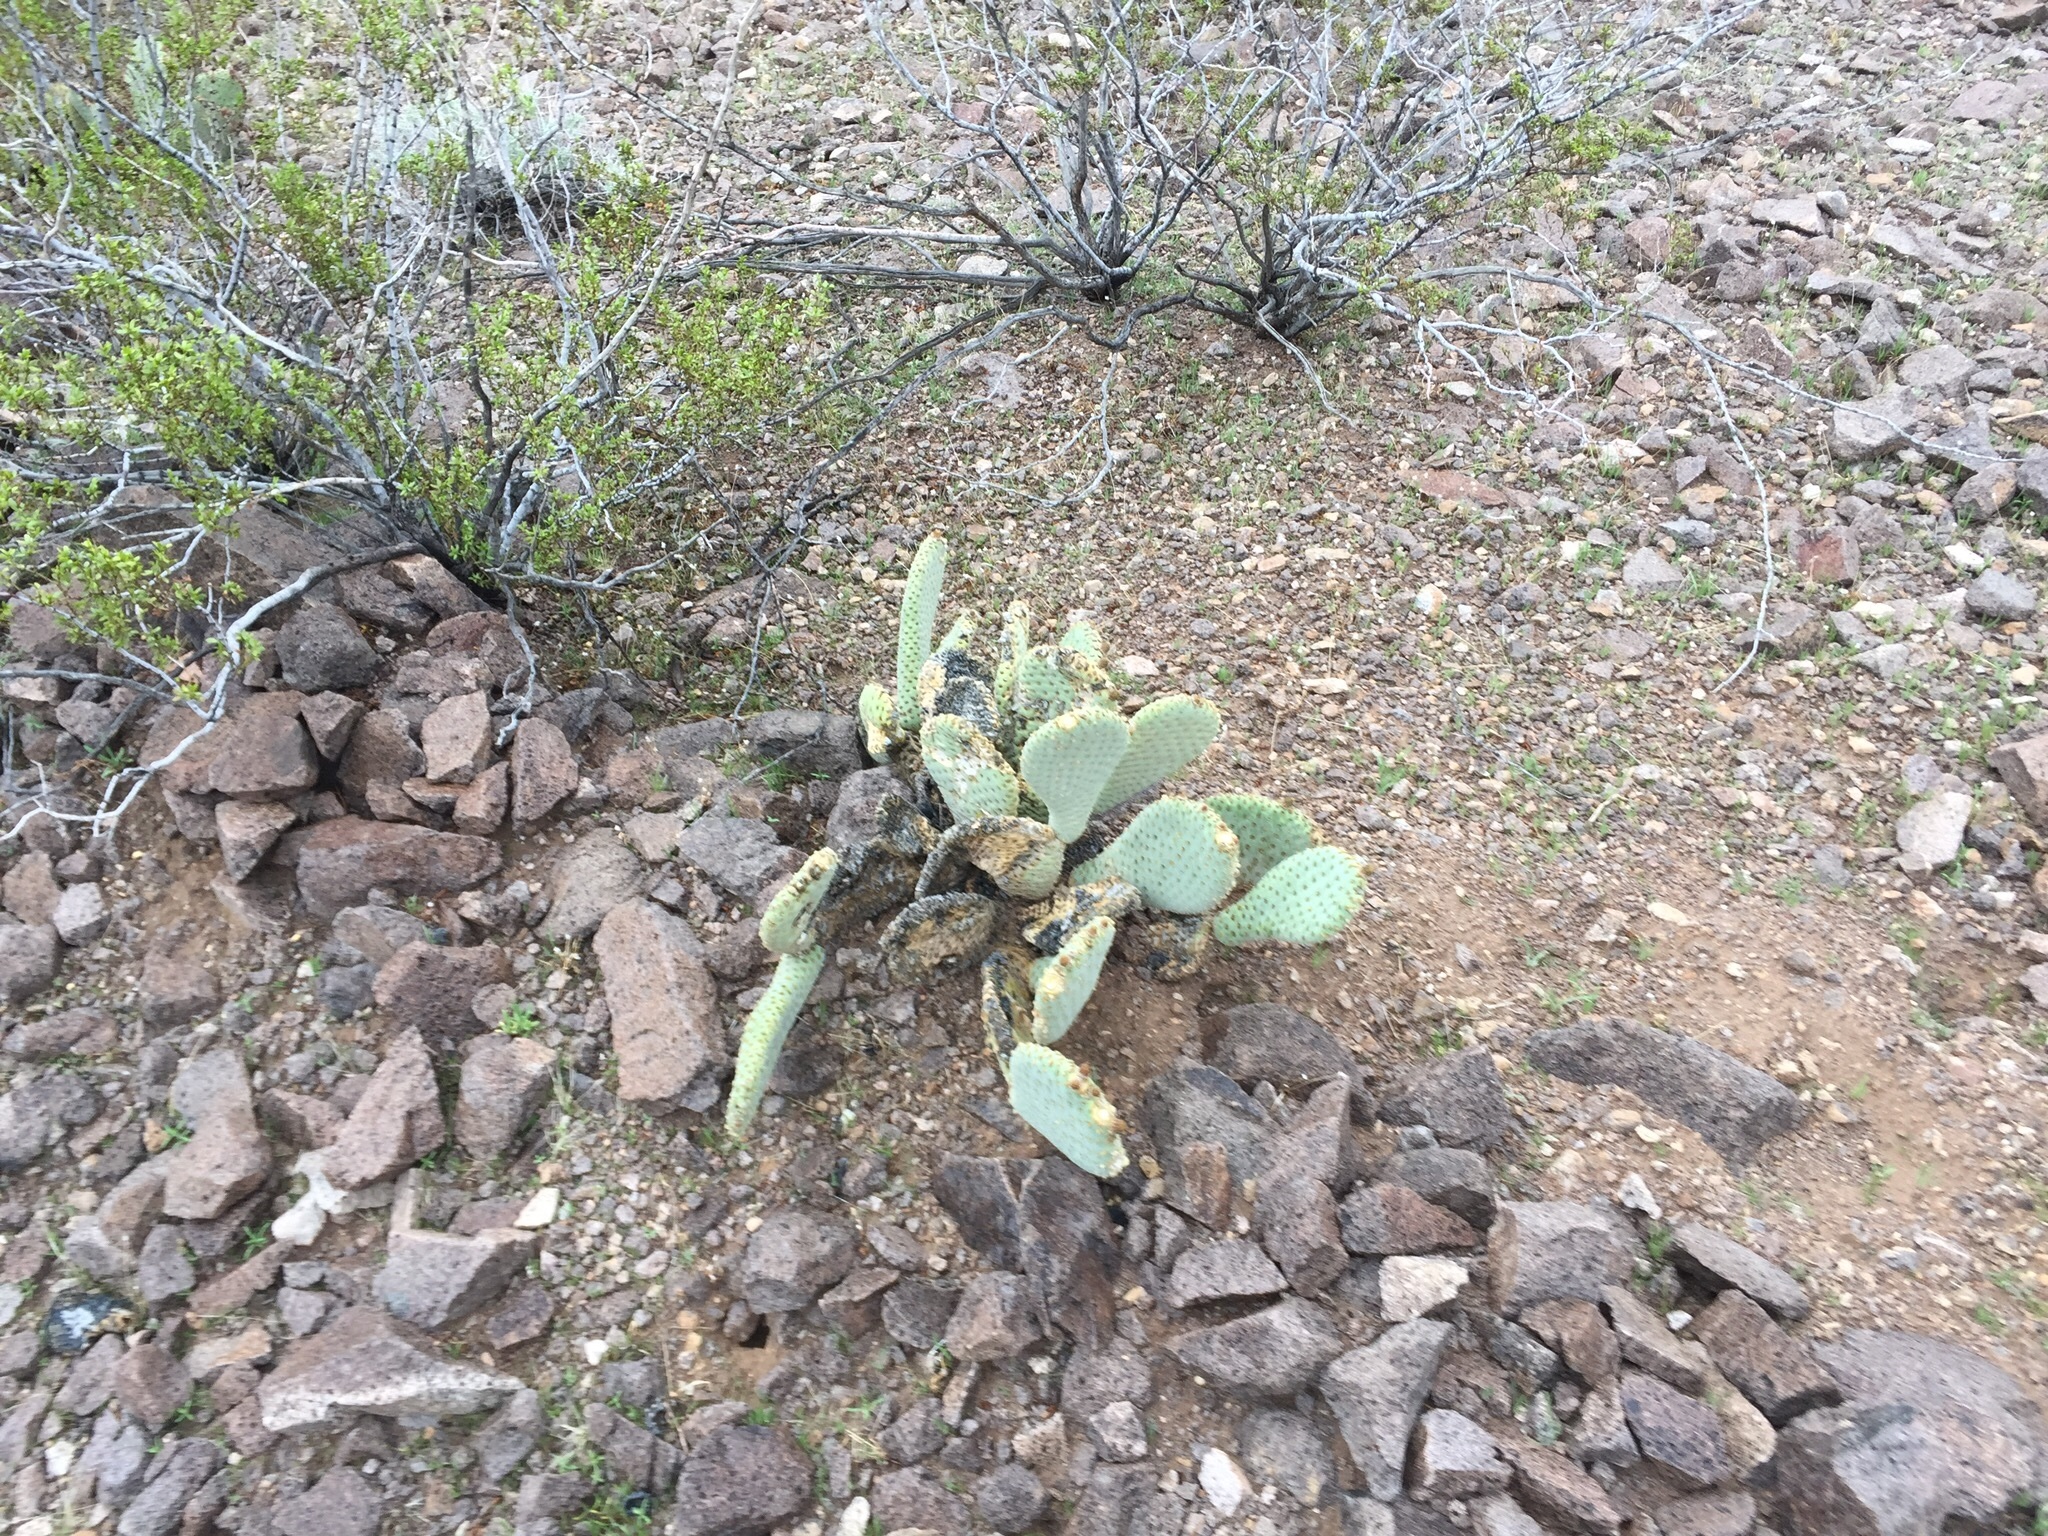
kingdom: Plantae
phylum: Tracheophyta
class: Magnoliopsida
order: Caryophyllales
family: Cactaceae
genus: Opuntia
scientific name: Opuntia basilaris
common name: Beavertail prickly-pear
